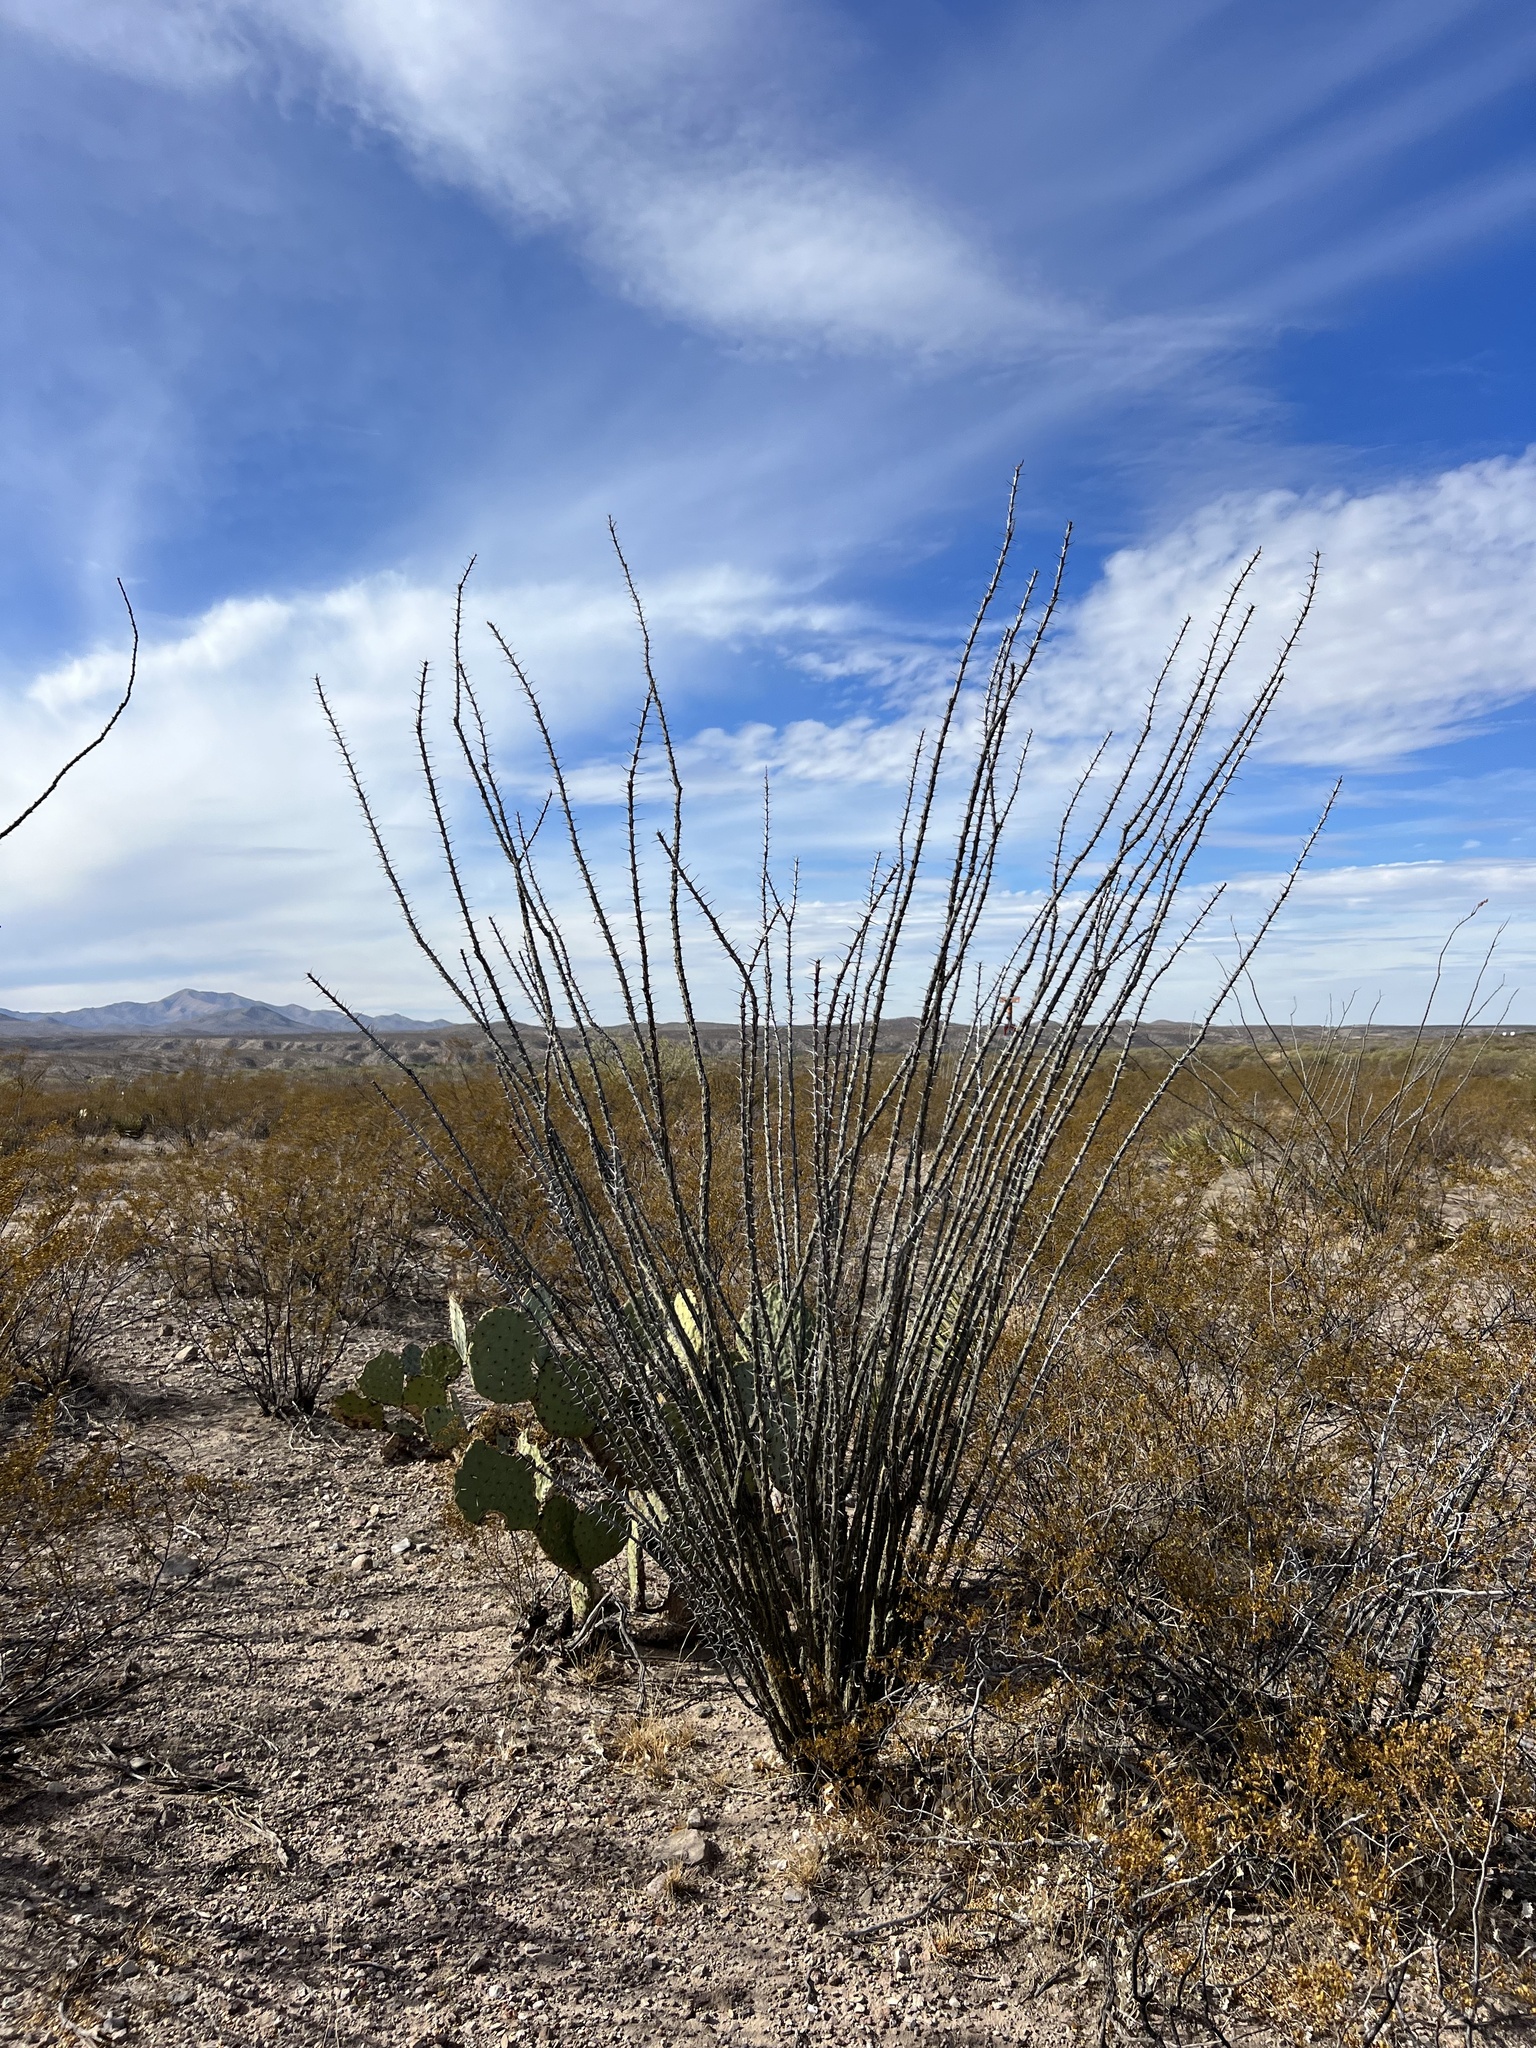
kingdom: Plantae
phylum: Tracheophyta
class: Magnoliopsida
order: Ericales
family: Fouquieriaceae
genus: Fouquieria
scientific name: Fouquieria splendens
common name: Vine-cactus
